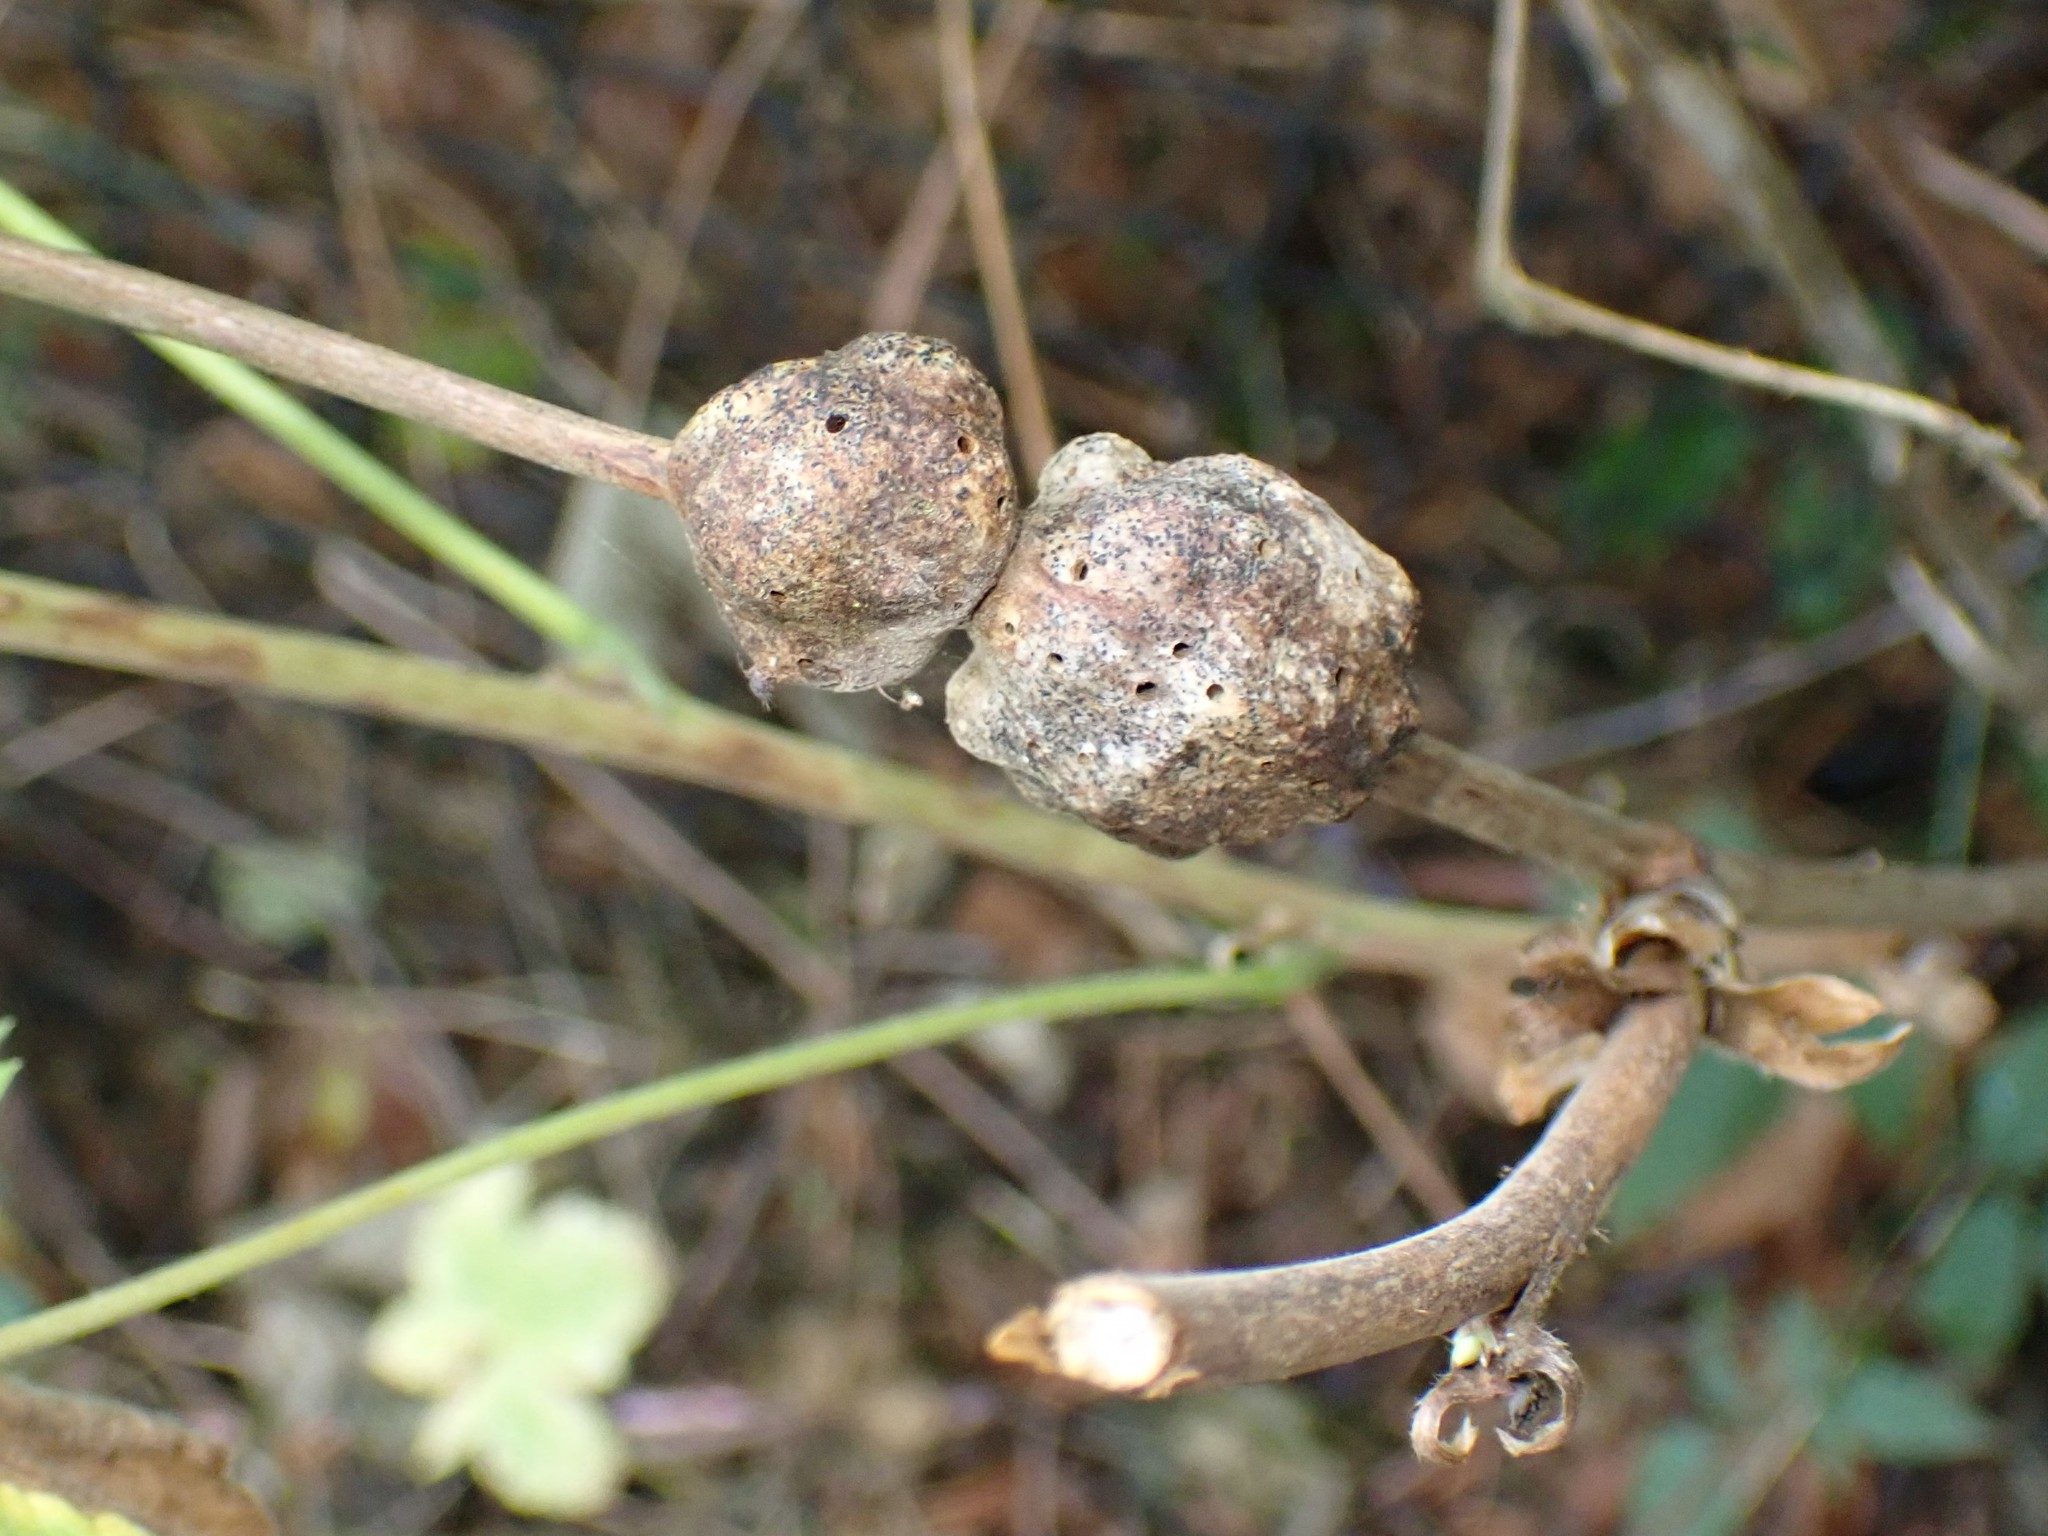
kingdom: Animalia
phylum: Arthropoda
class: Insecta
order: Hymenoptera
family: Cynipidae
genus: Diastrophus
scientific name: Diastrophus
